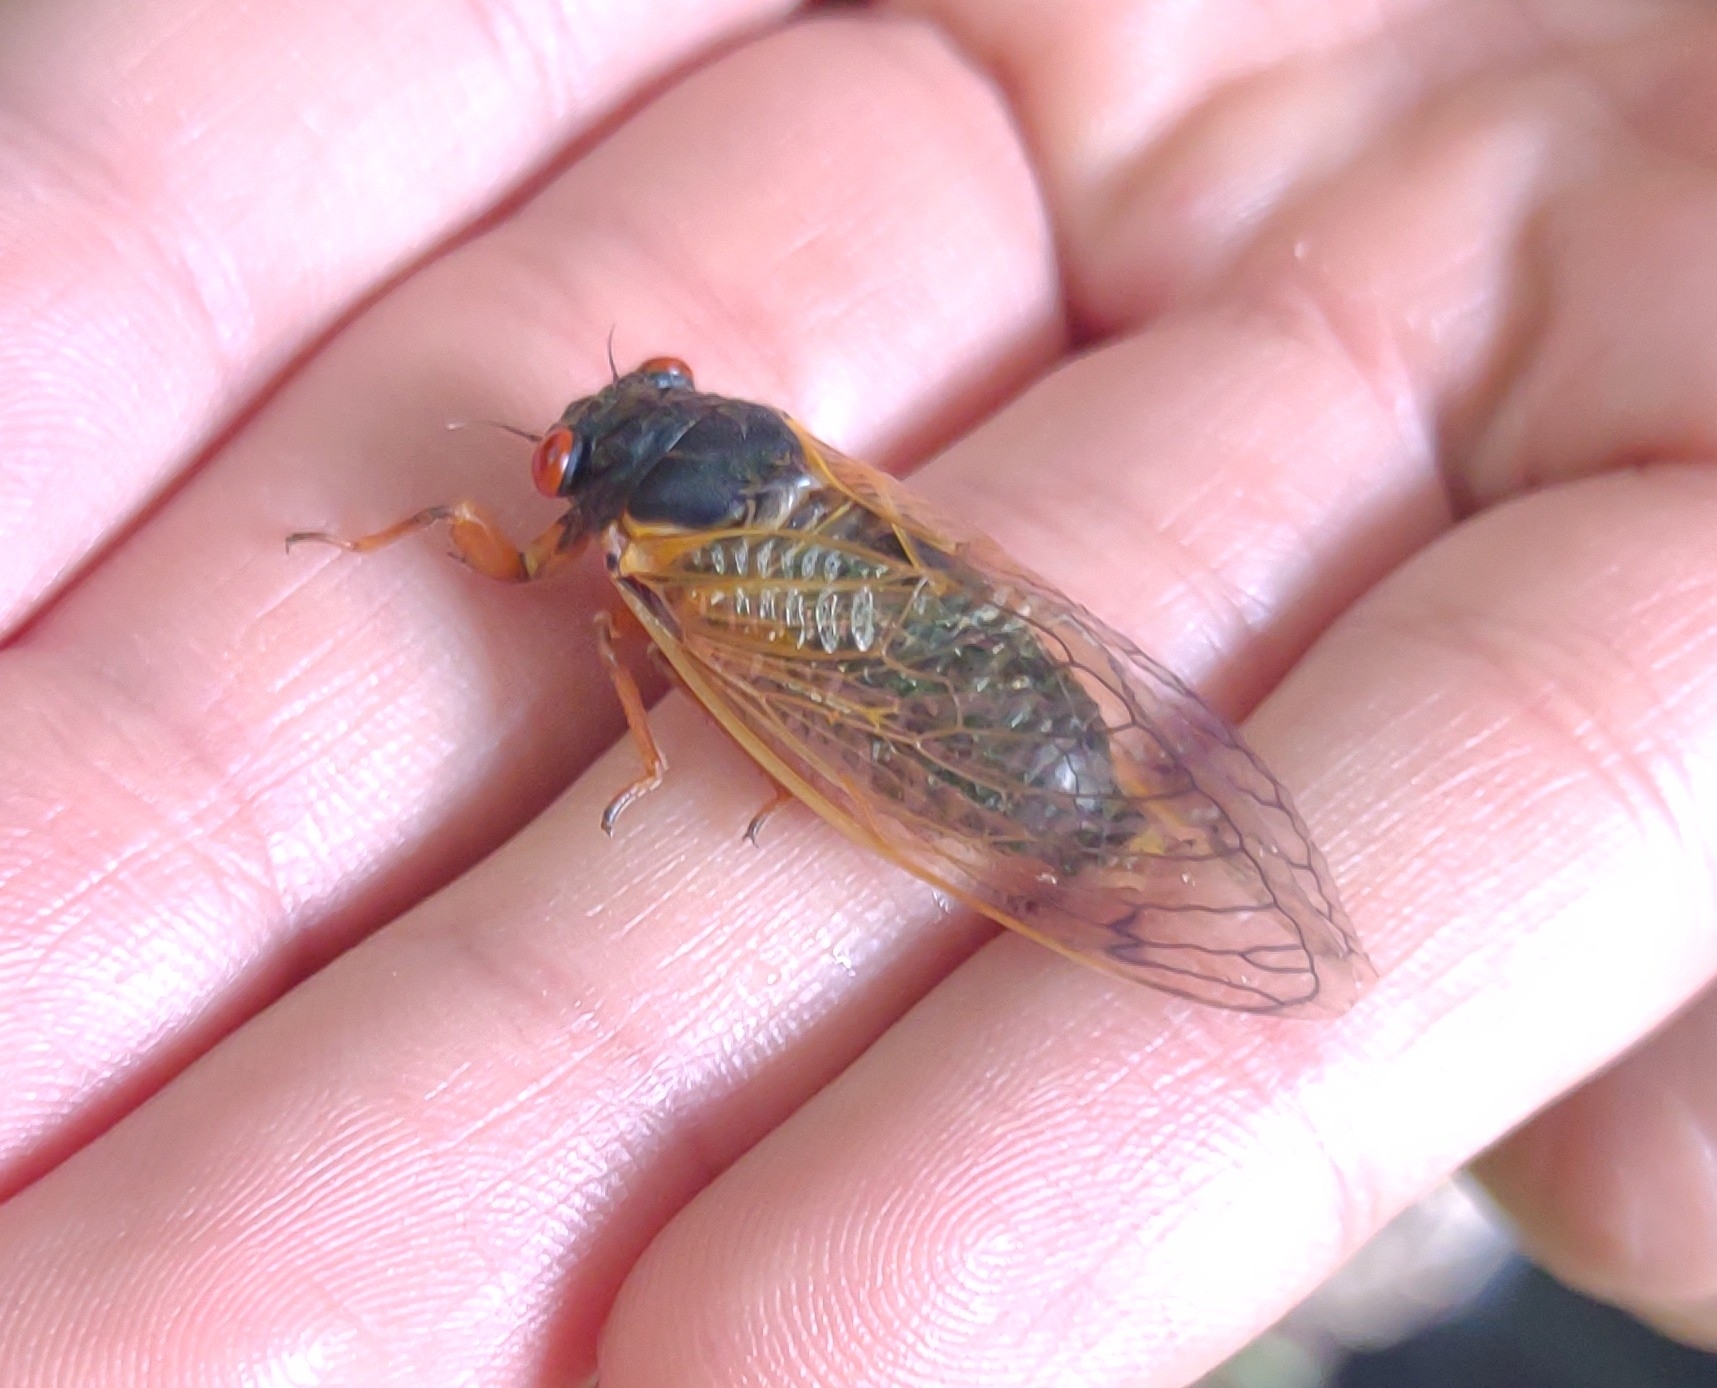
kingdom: Animalia
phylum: Arthropoda
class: Insecta
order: Hemiptera
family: Cicadidae
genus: Magicicada
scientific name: Magicicada
